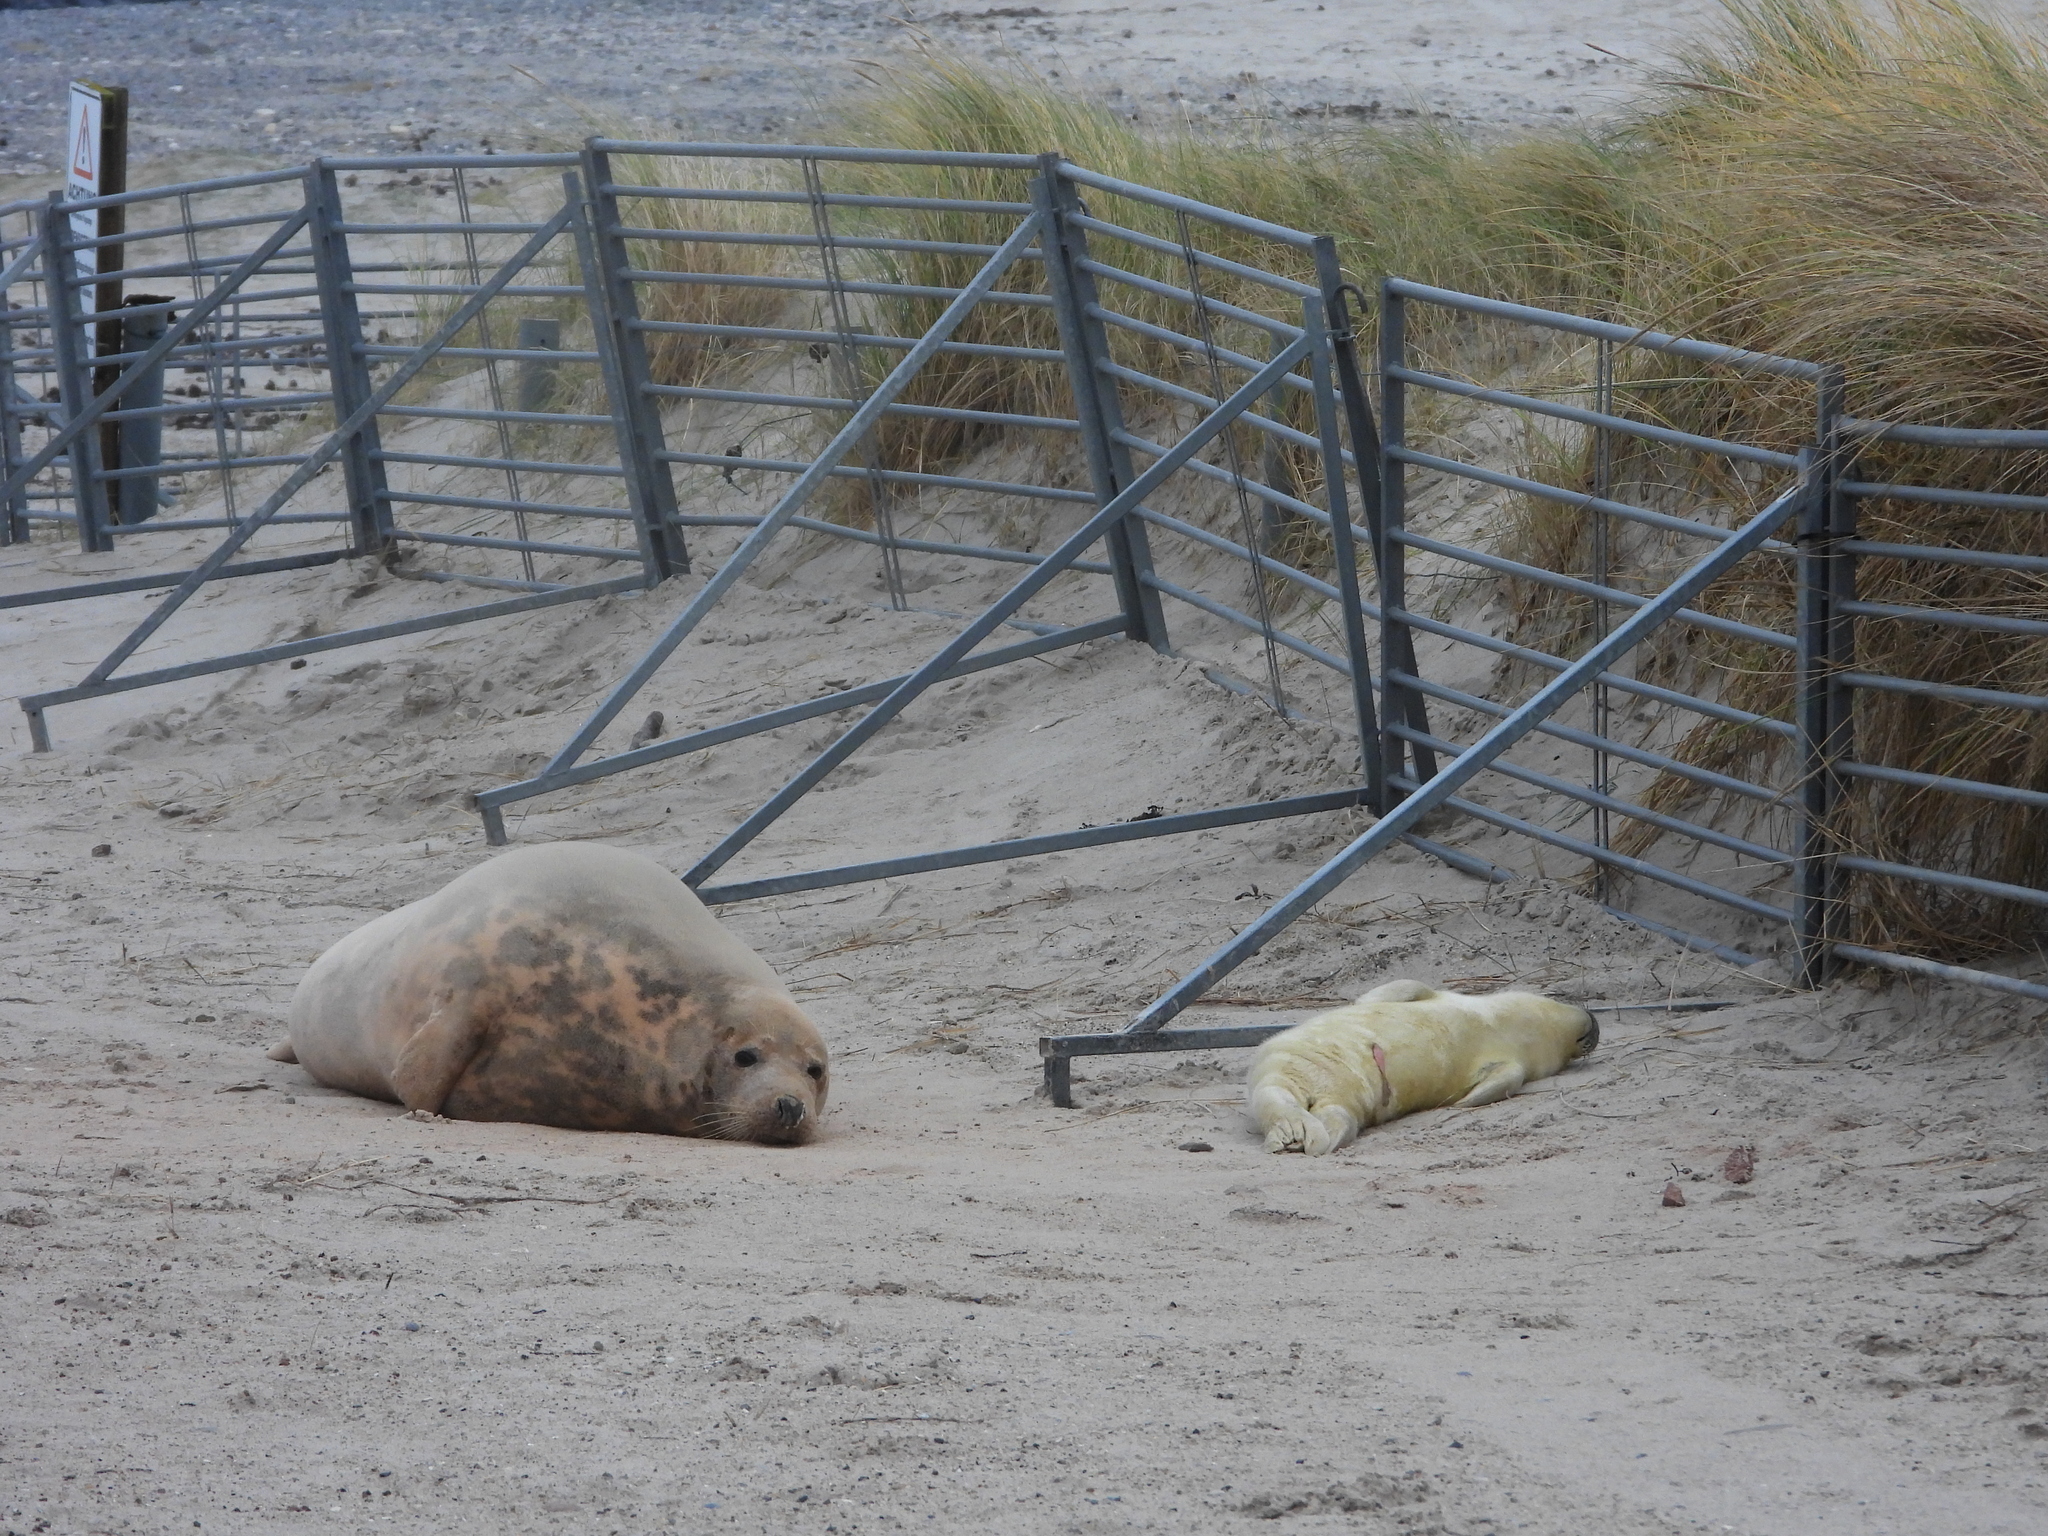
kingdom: Animalia
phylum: Chordata
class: Mammalia
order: Carnivora
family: Phocidae
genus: Halichoerus
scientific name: Halichoerus grypus
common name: Grey seal
